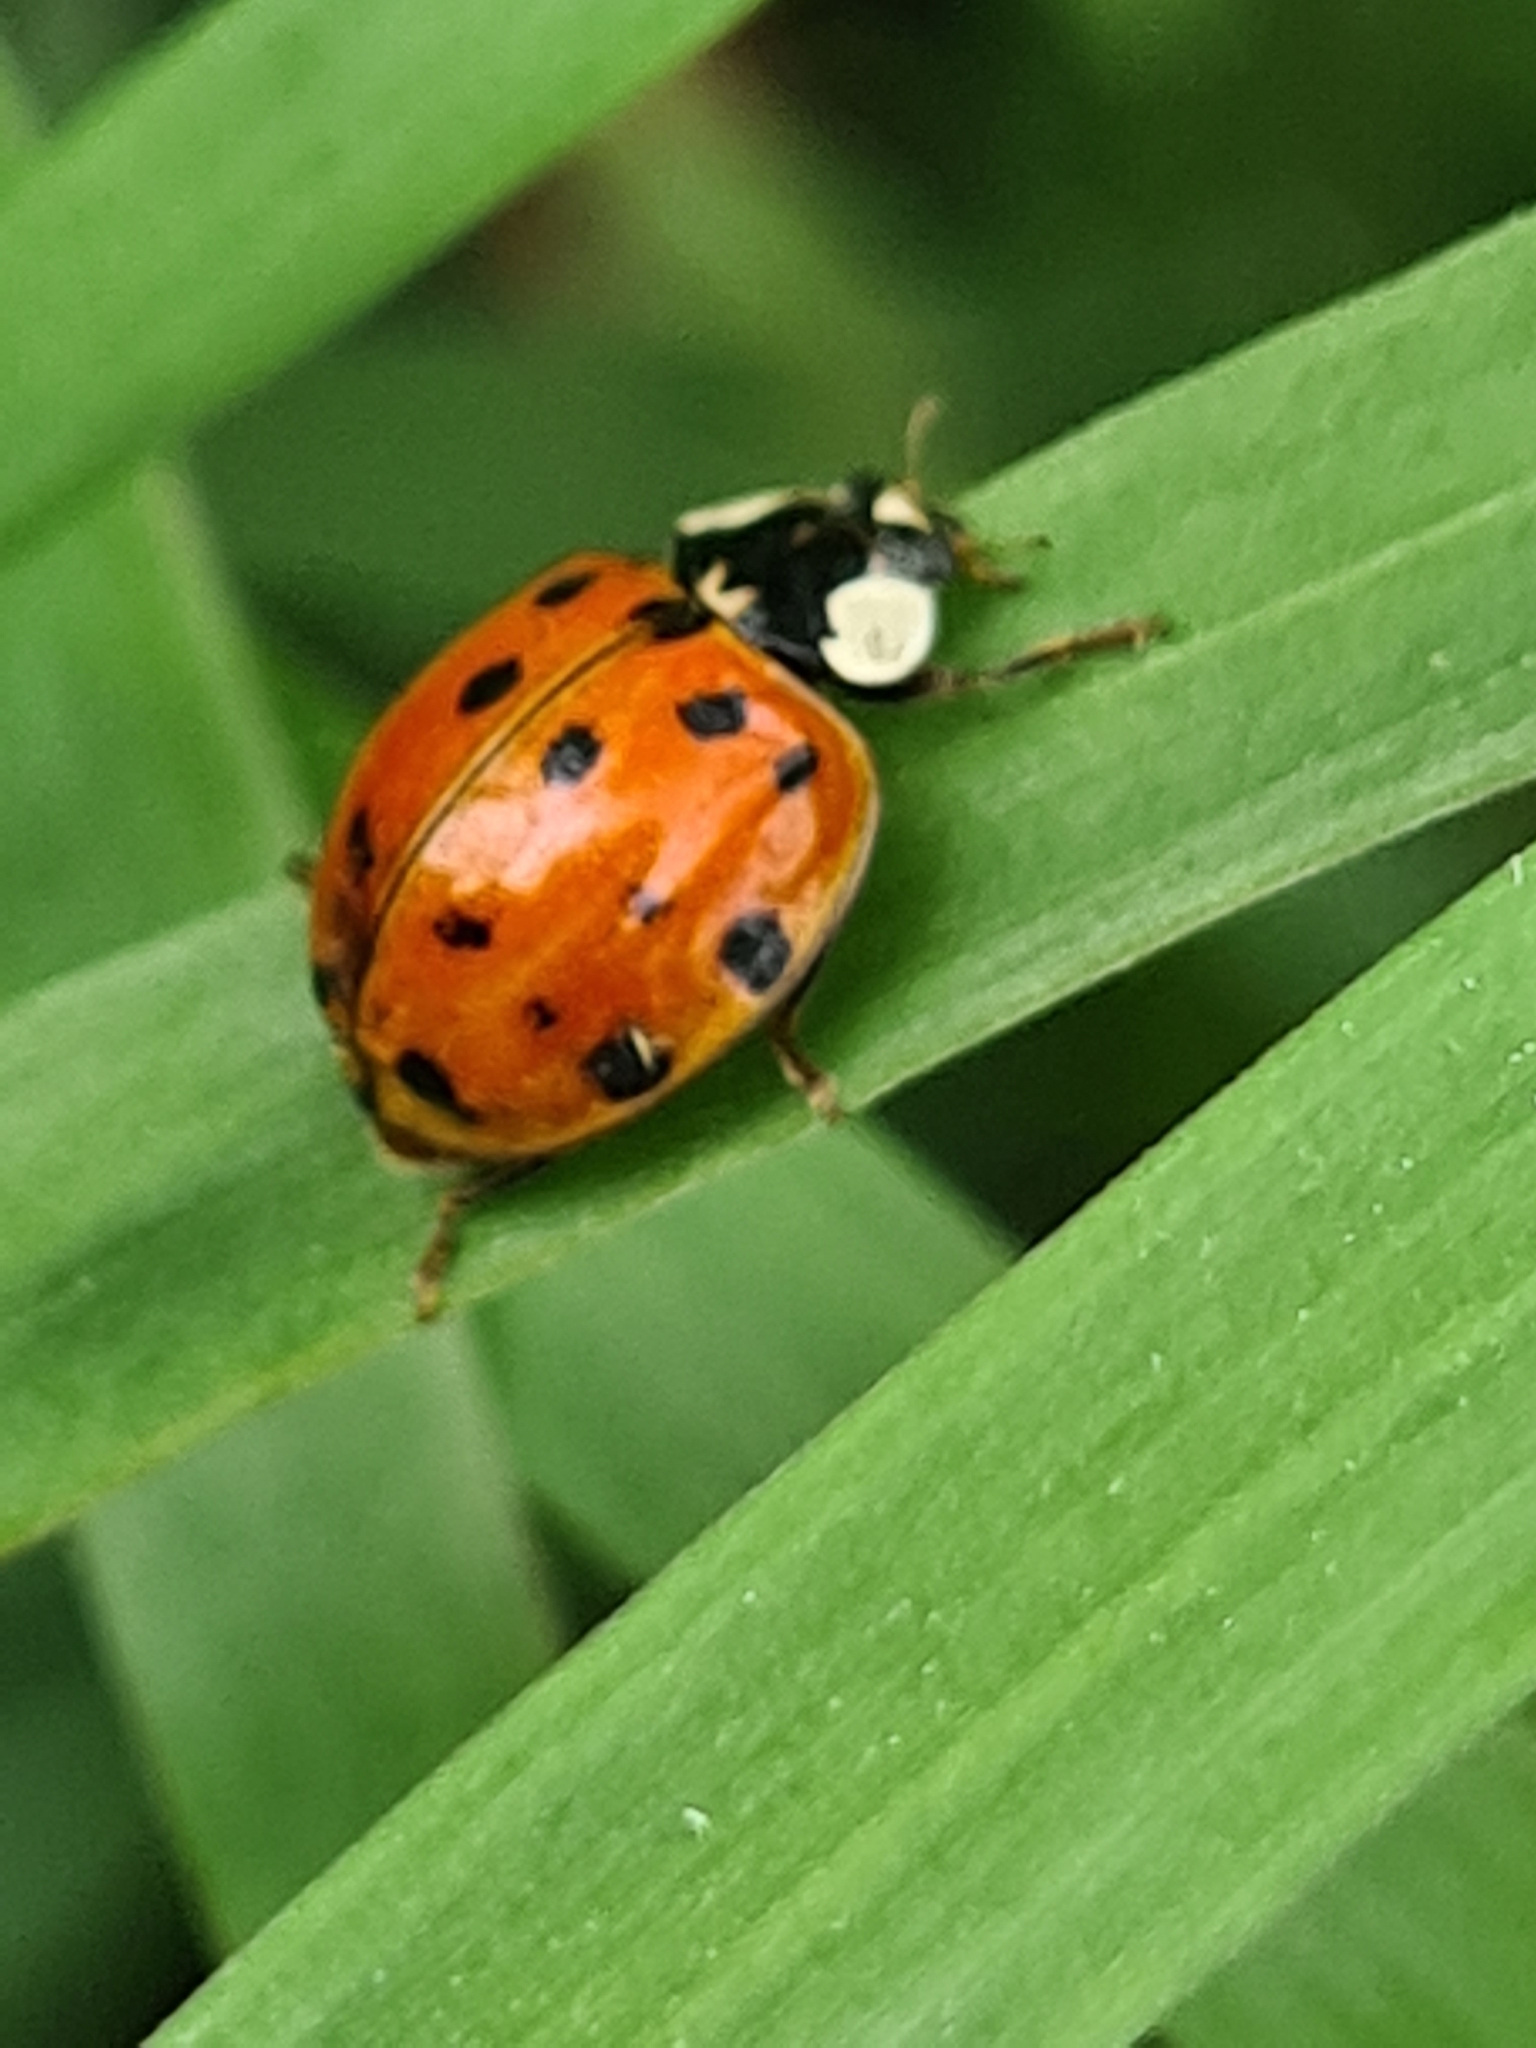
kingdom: Animalia
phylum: Arthropoda
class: Insecta
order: Coleoptera
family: Coccinellidae
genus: Harmonia
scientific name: Harmonia axyridis
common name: Harlequin ladybird
